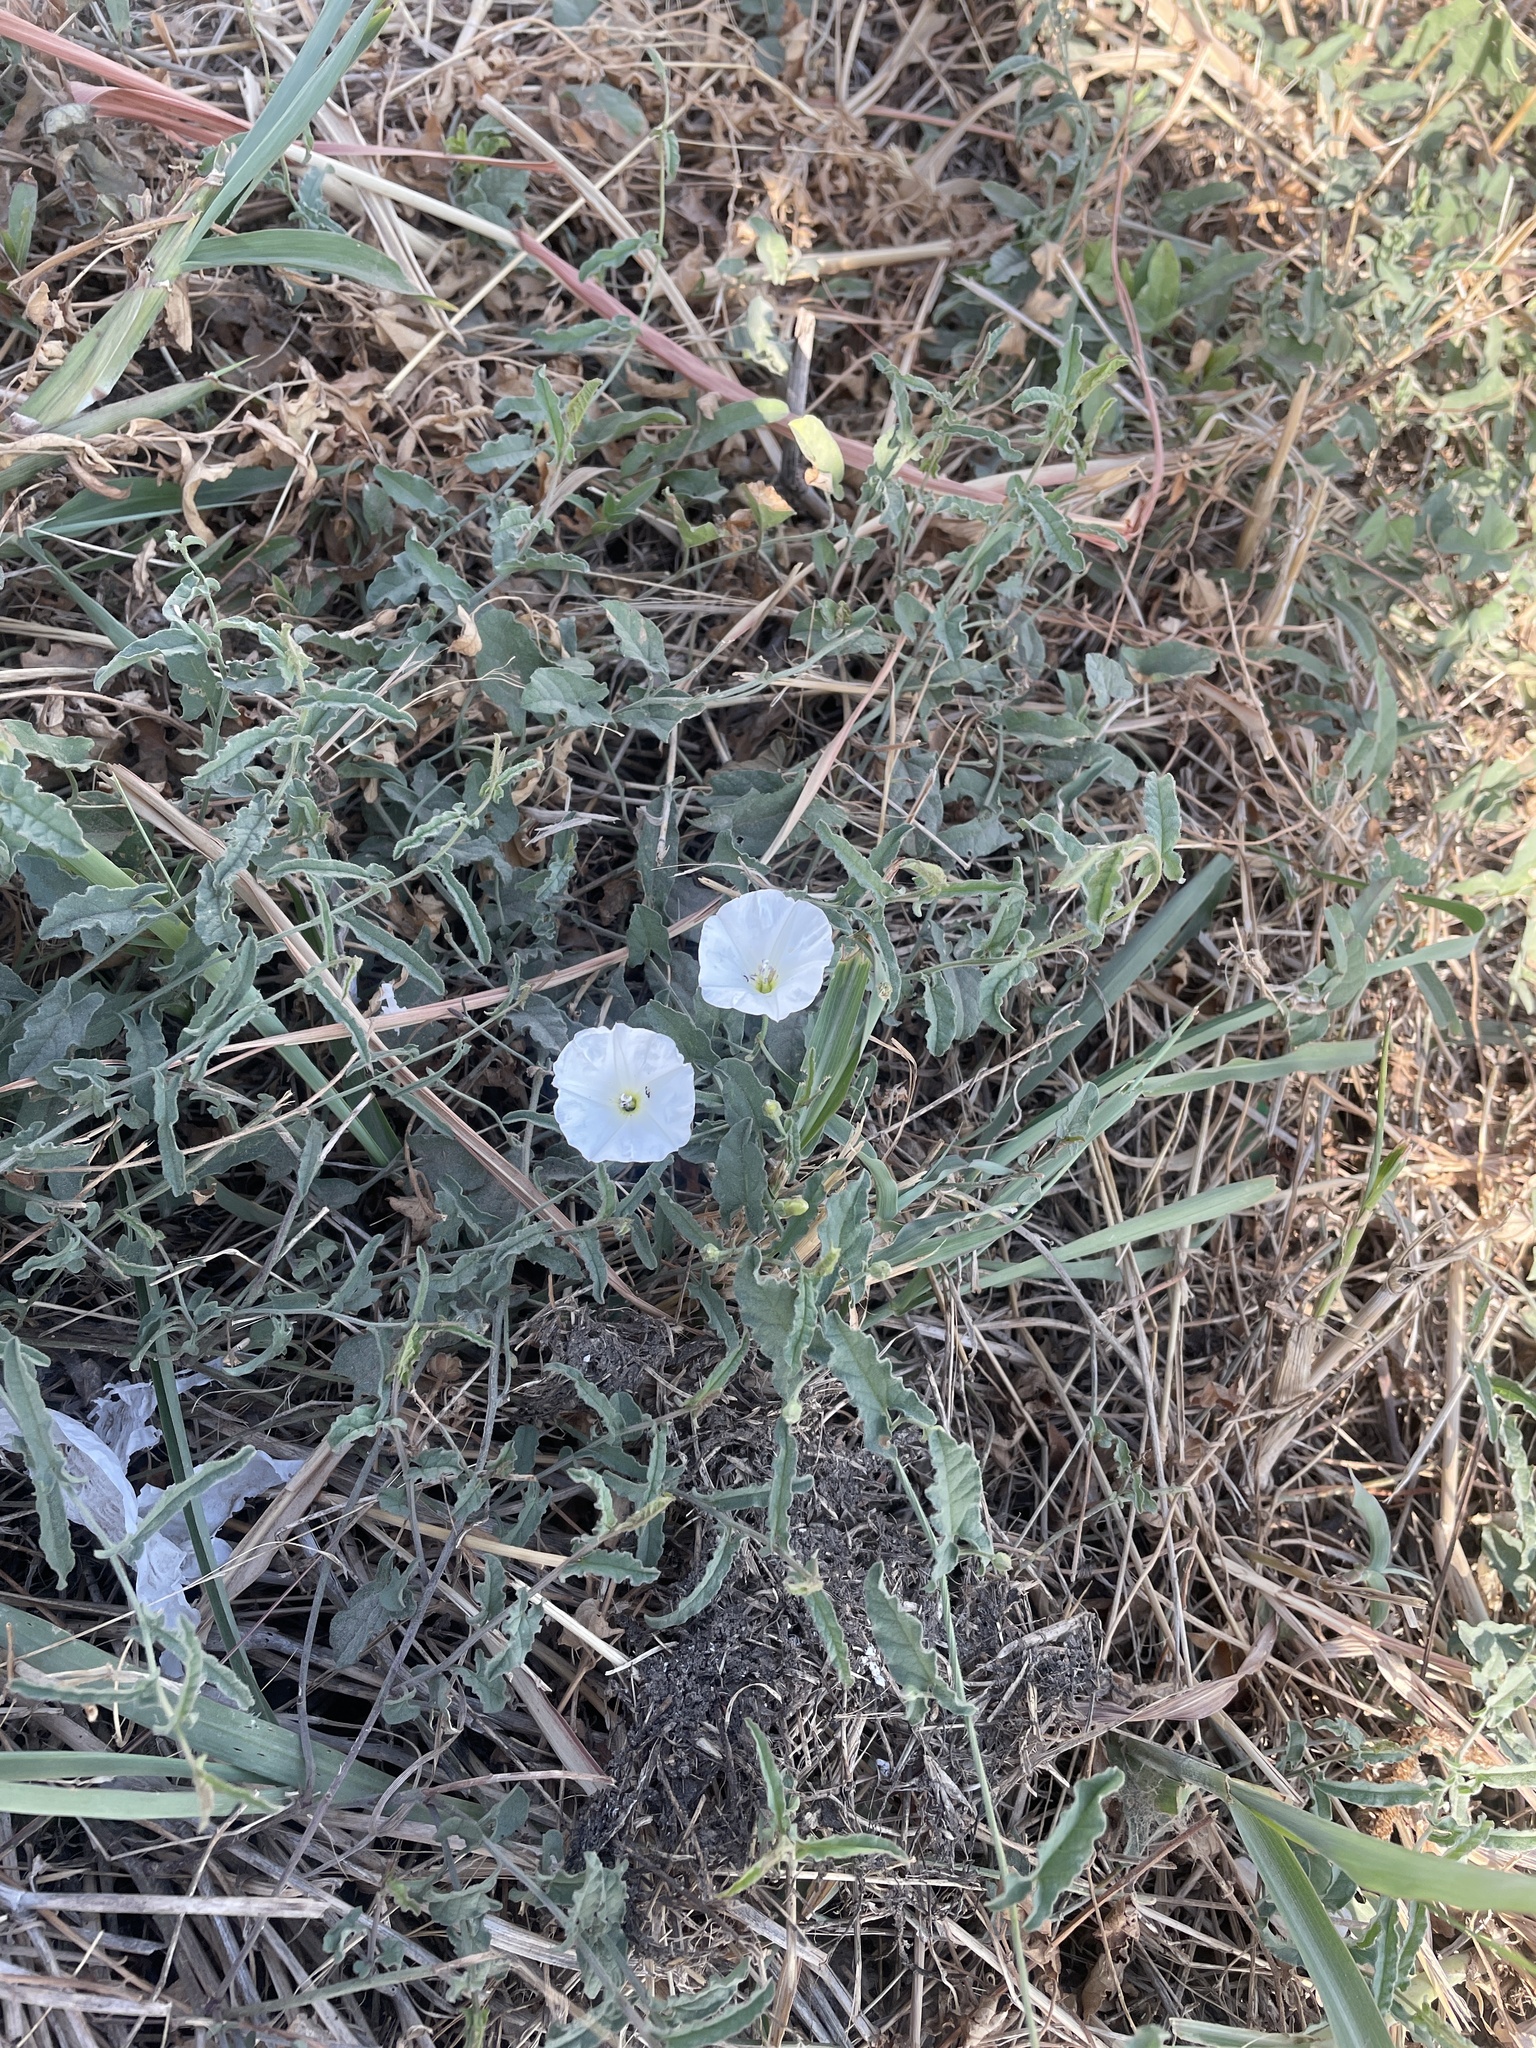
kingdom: Plantae
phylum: Tracheophyta
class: Magnoliopsida
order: Solanales
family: Convolvulaceae
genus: Convolvulus
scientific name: Convolvulus arvensis
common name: Field bindweed
